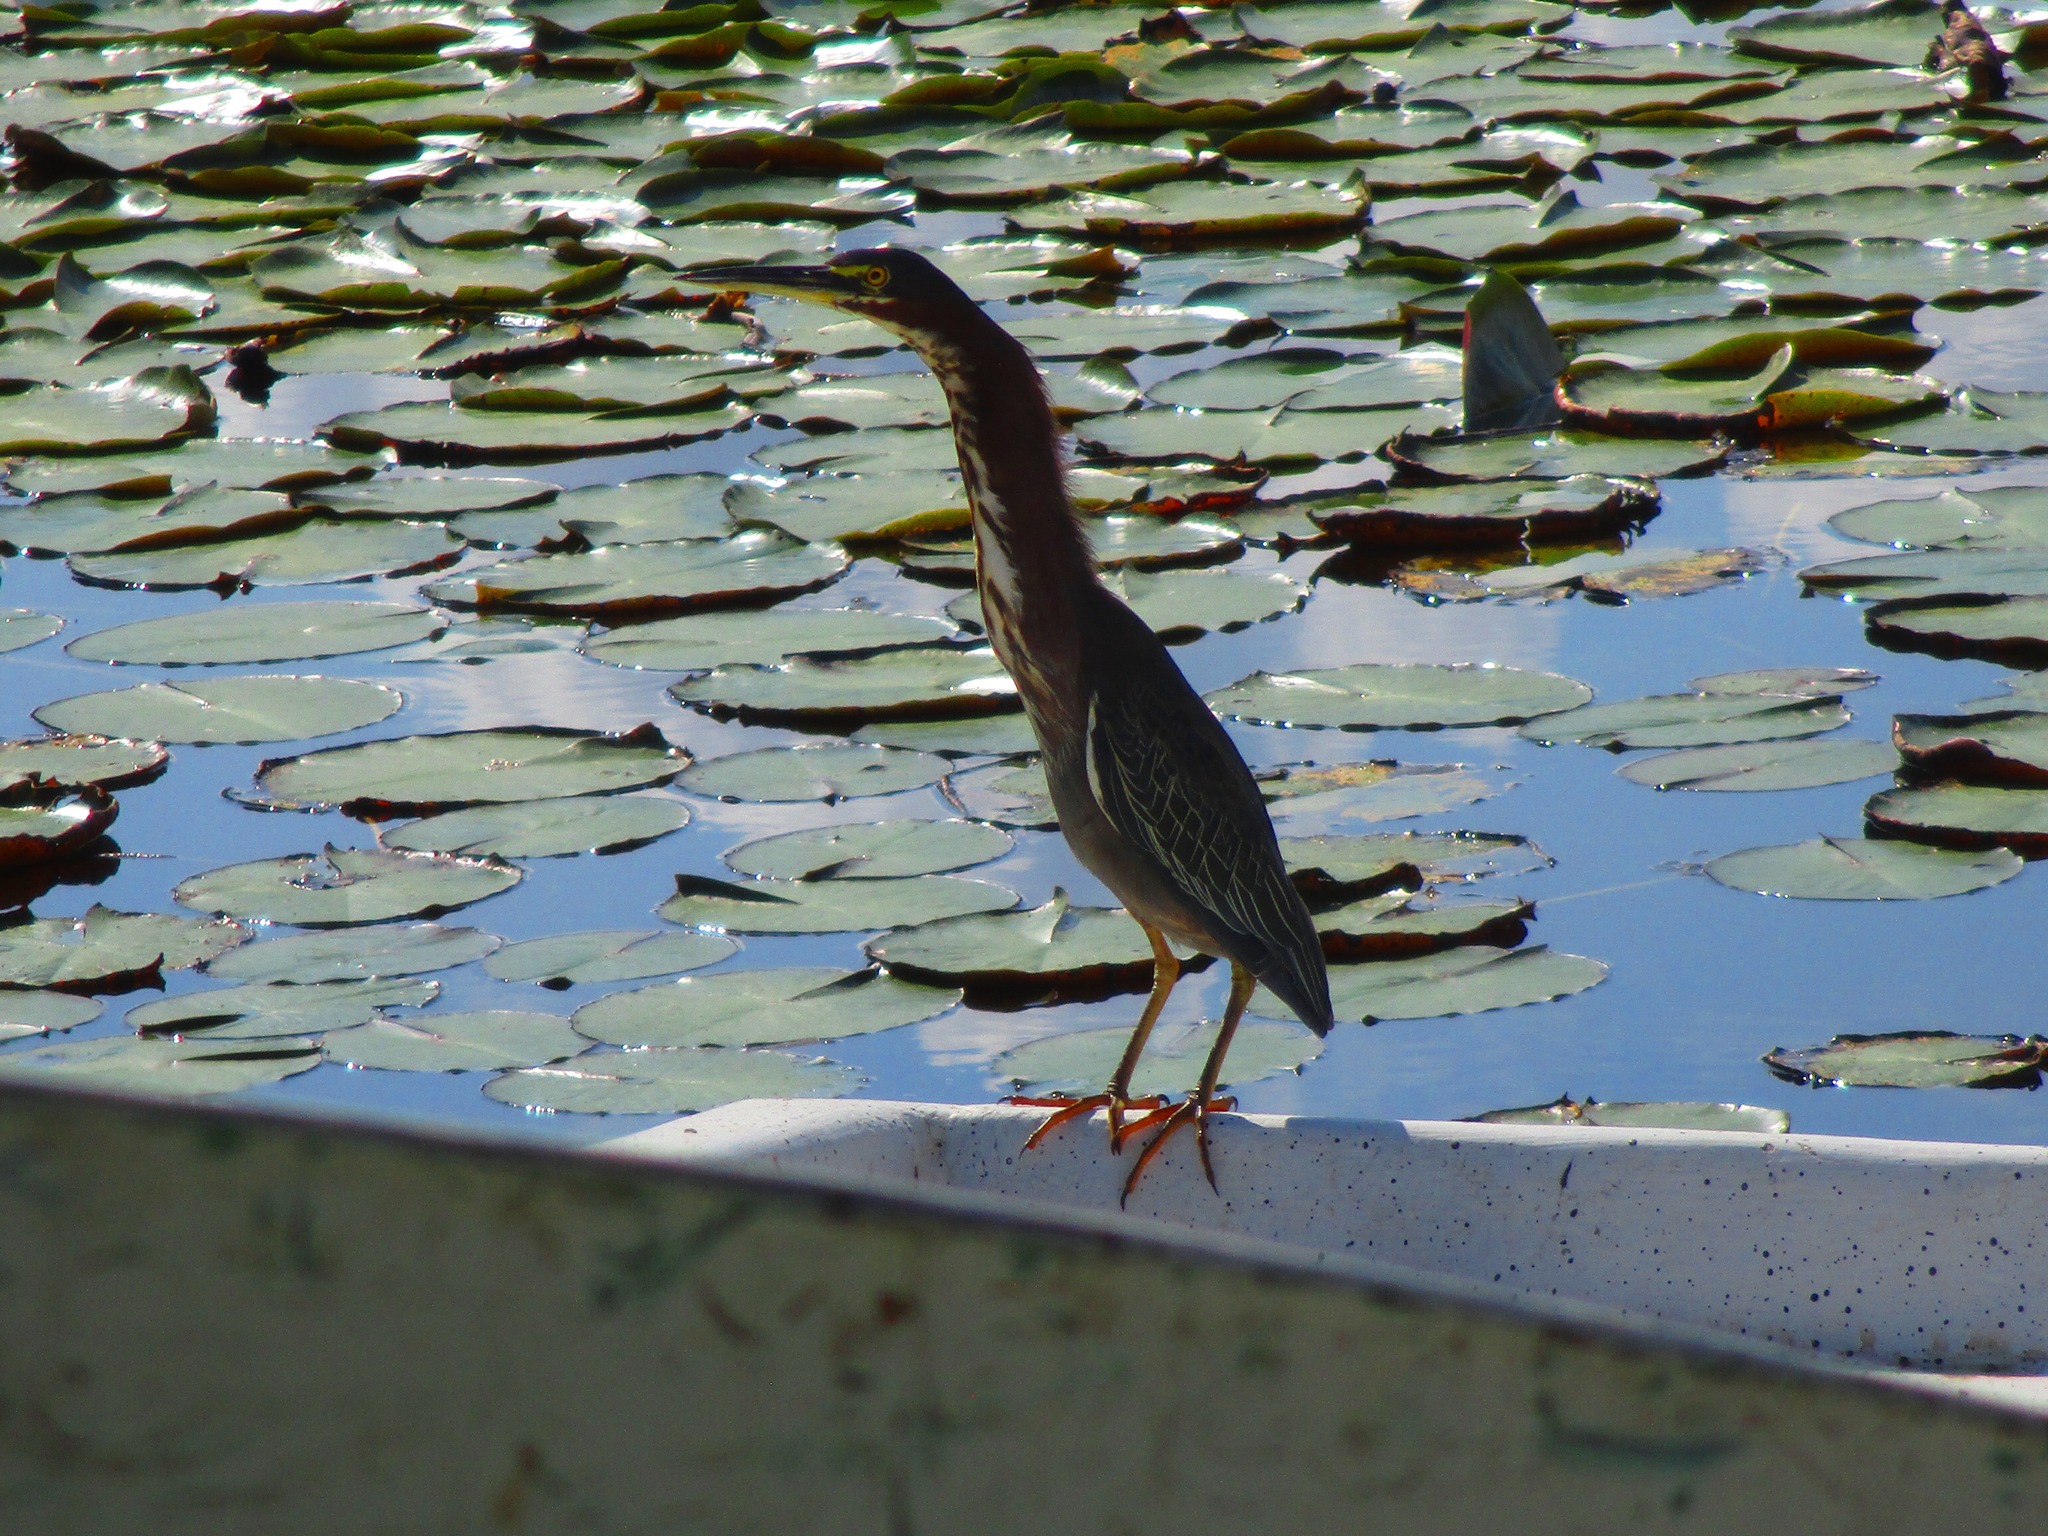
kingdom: Animalia
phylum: Chordata
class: Aves
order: Pelecaniformes
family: Ardeidae
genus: Butorides
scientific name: Butorides virescens
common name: Green heron
